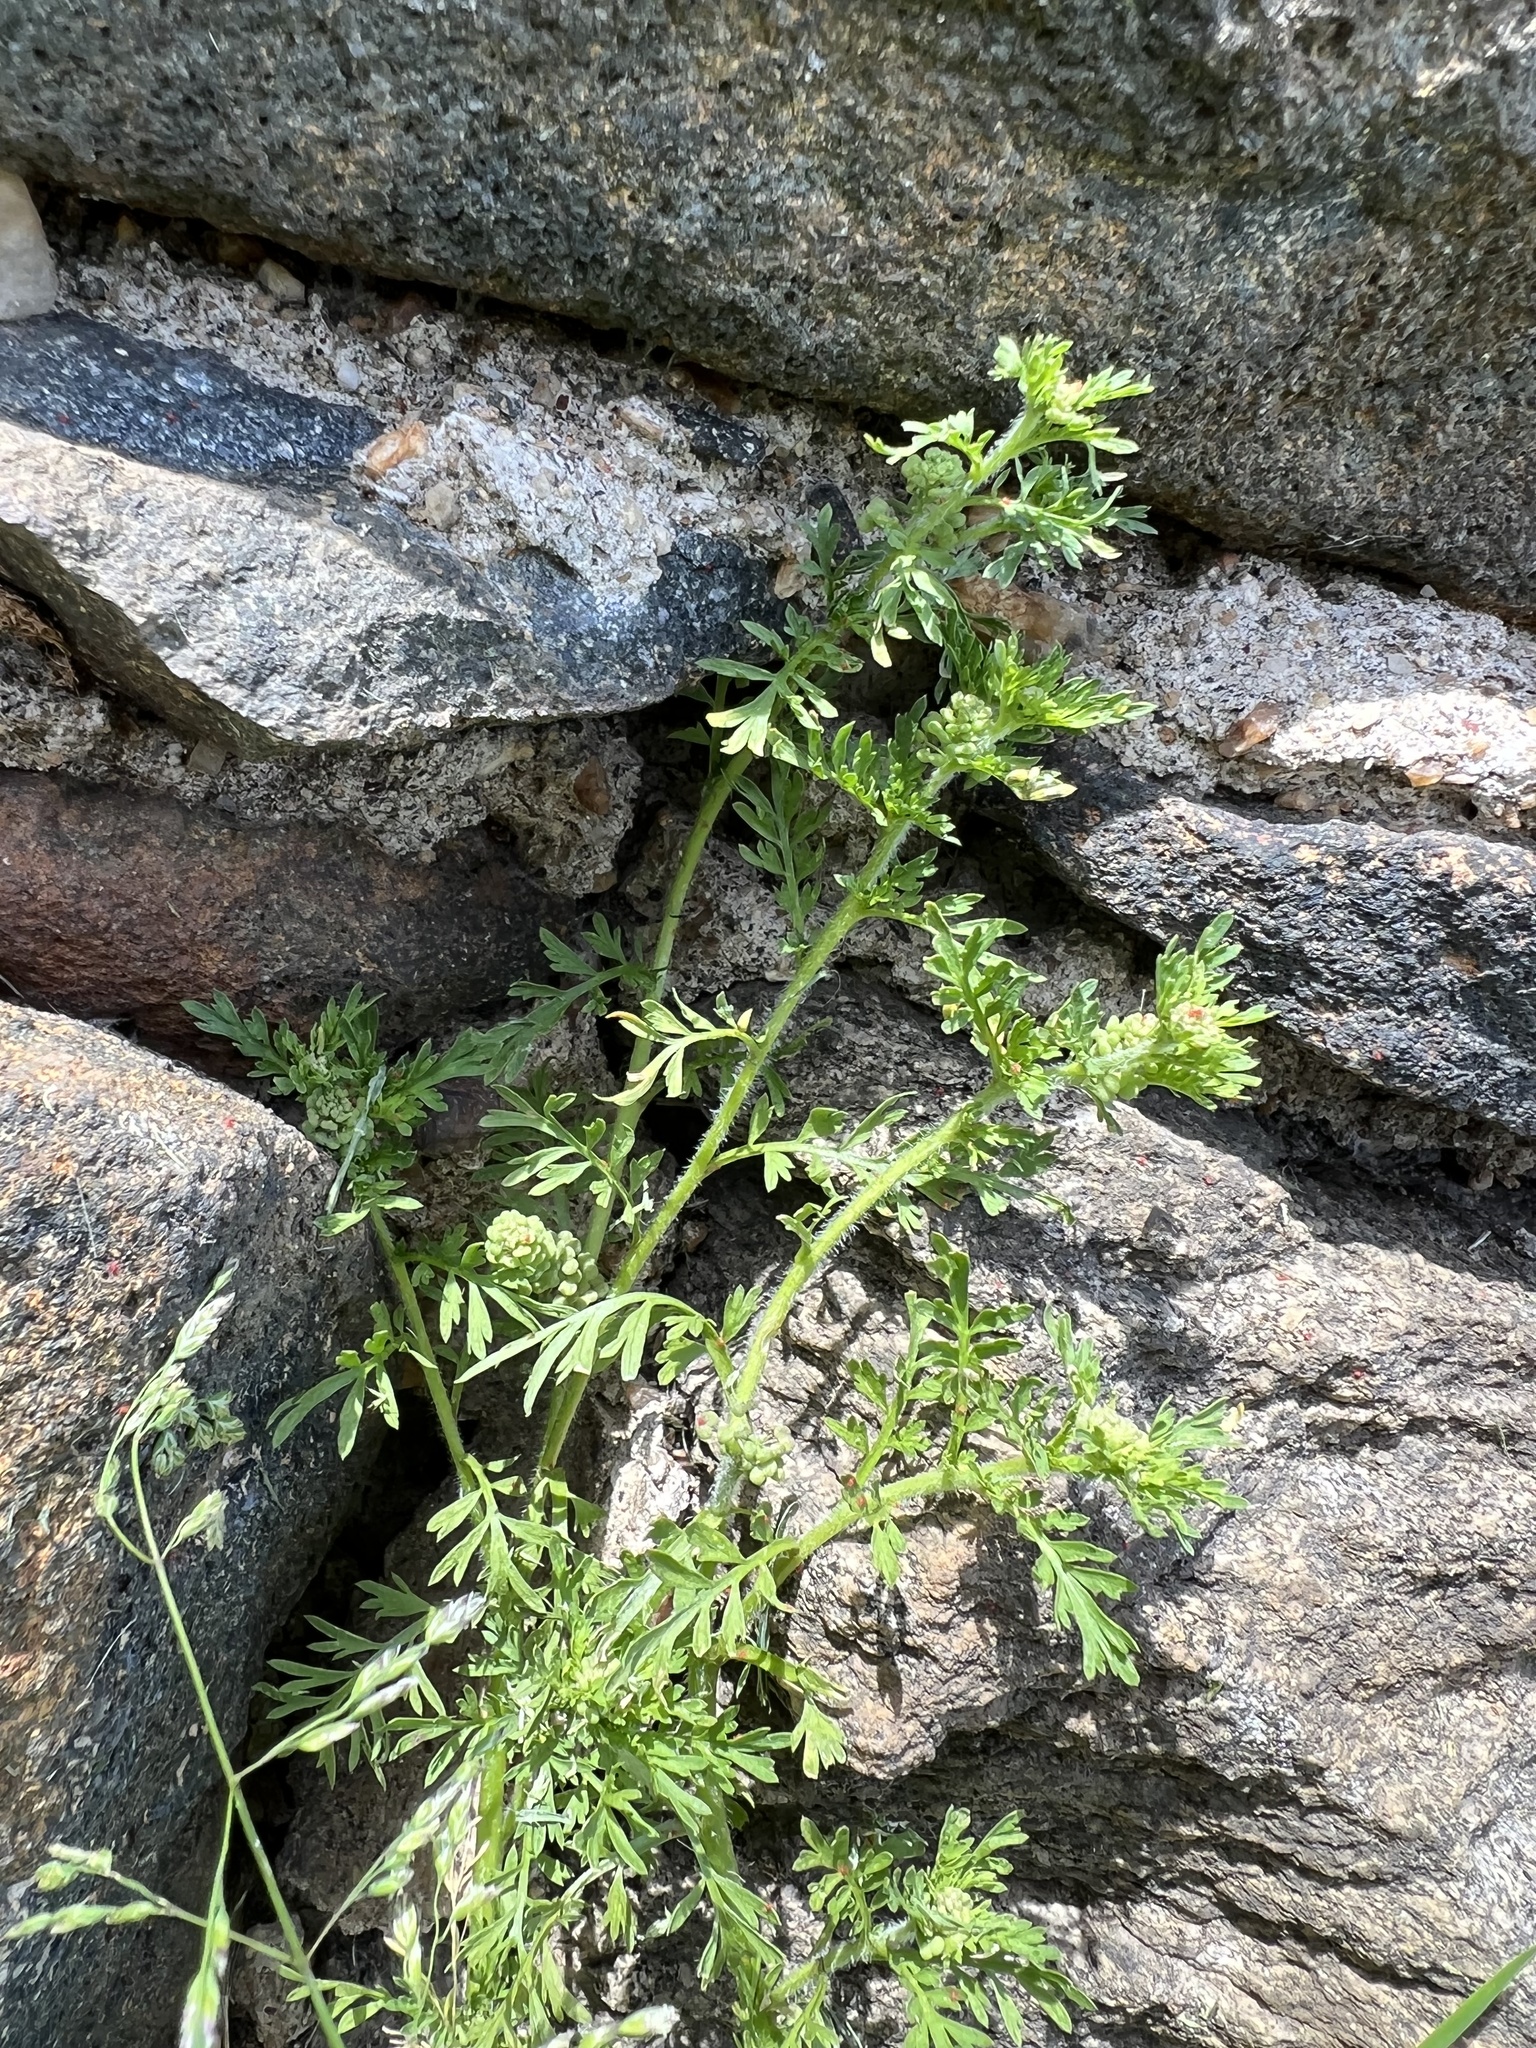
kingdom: Plantae
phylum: Tracheophyta
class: Magnoliopsida
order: Brassicales
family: Brassicaceae
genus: Lepidium
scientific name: Lepidium didymum
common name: Lesser swinecress
